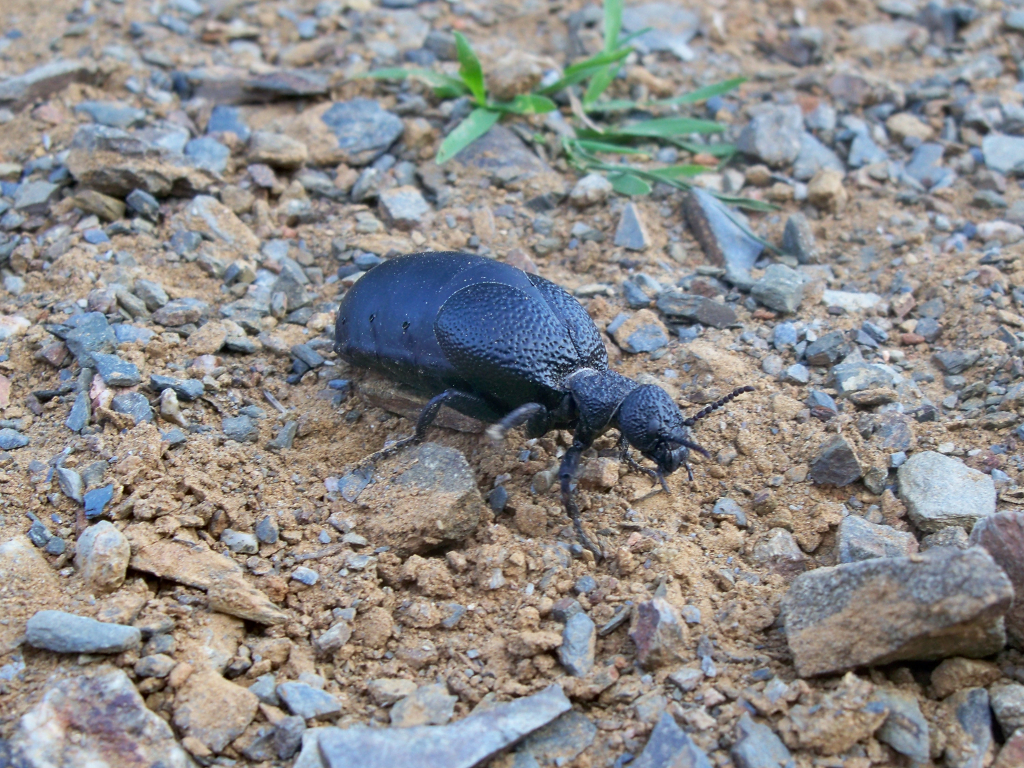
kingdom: Animalia
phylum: Arthropoda
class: Insecta
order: Coleoptera
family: Meloidae
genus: Meloe
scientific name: Meloe tuccius
